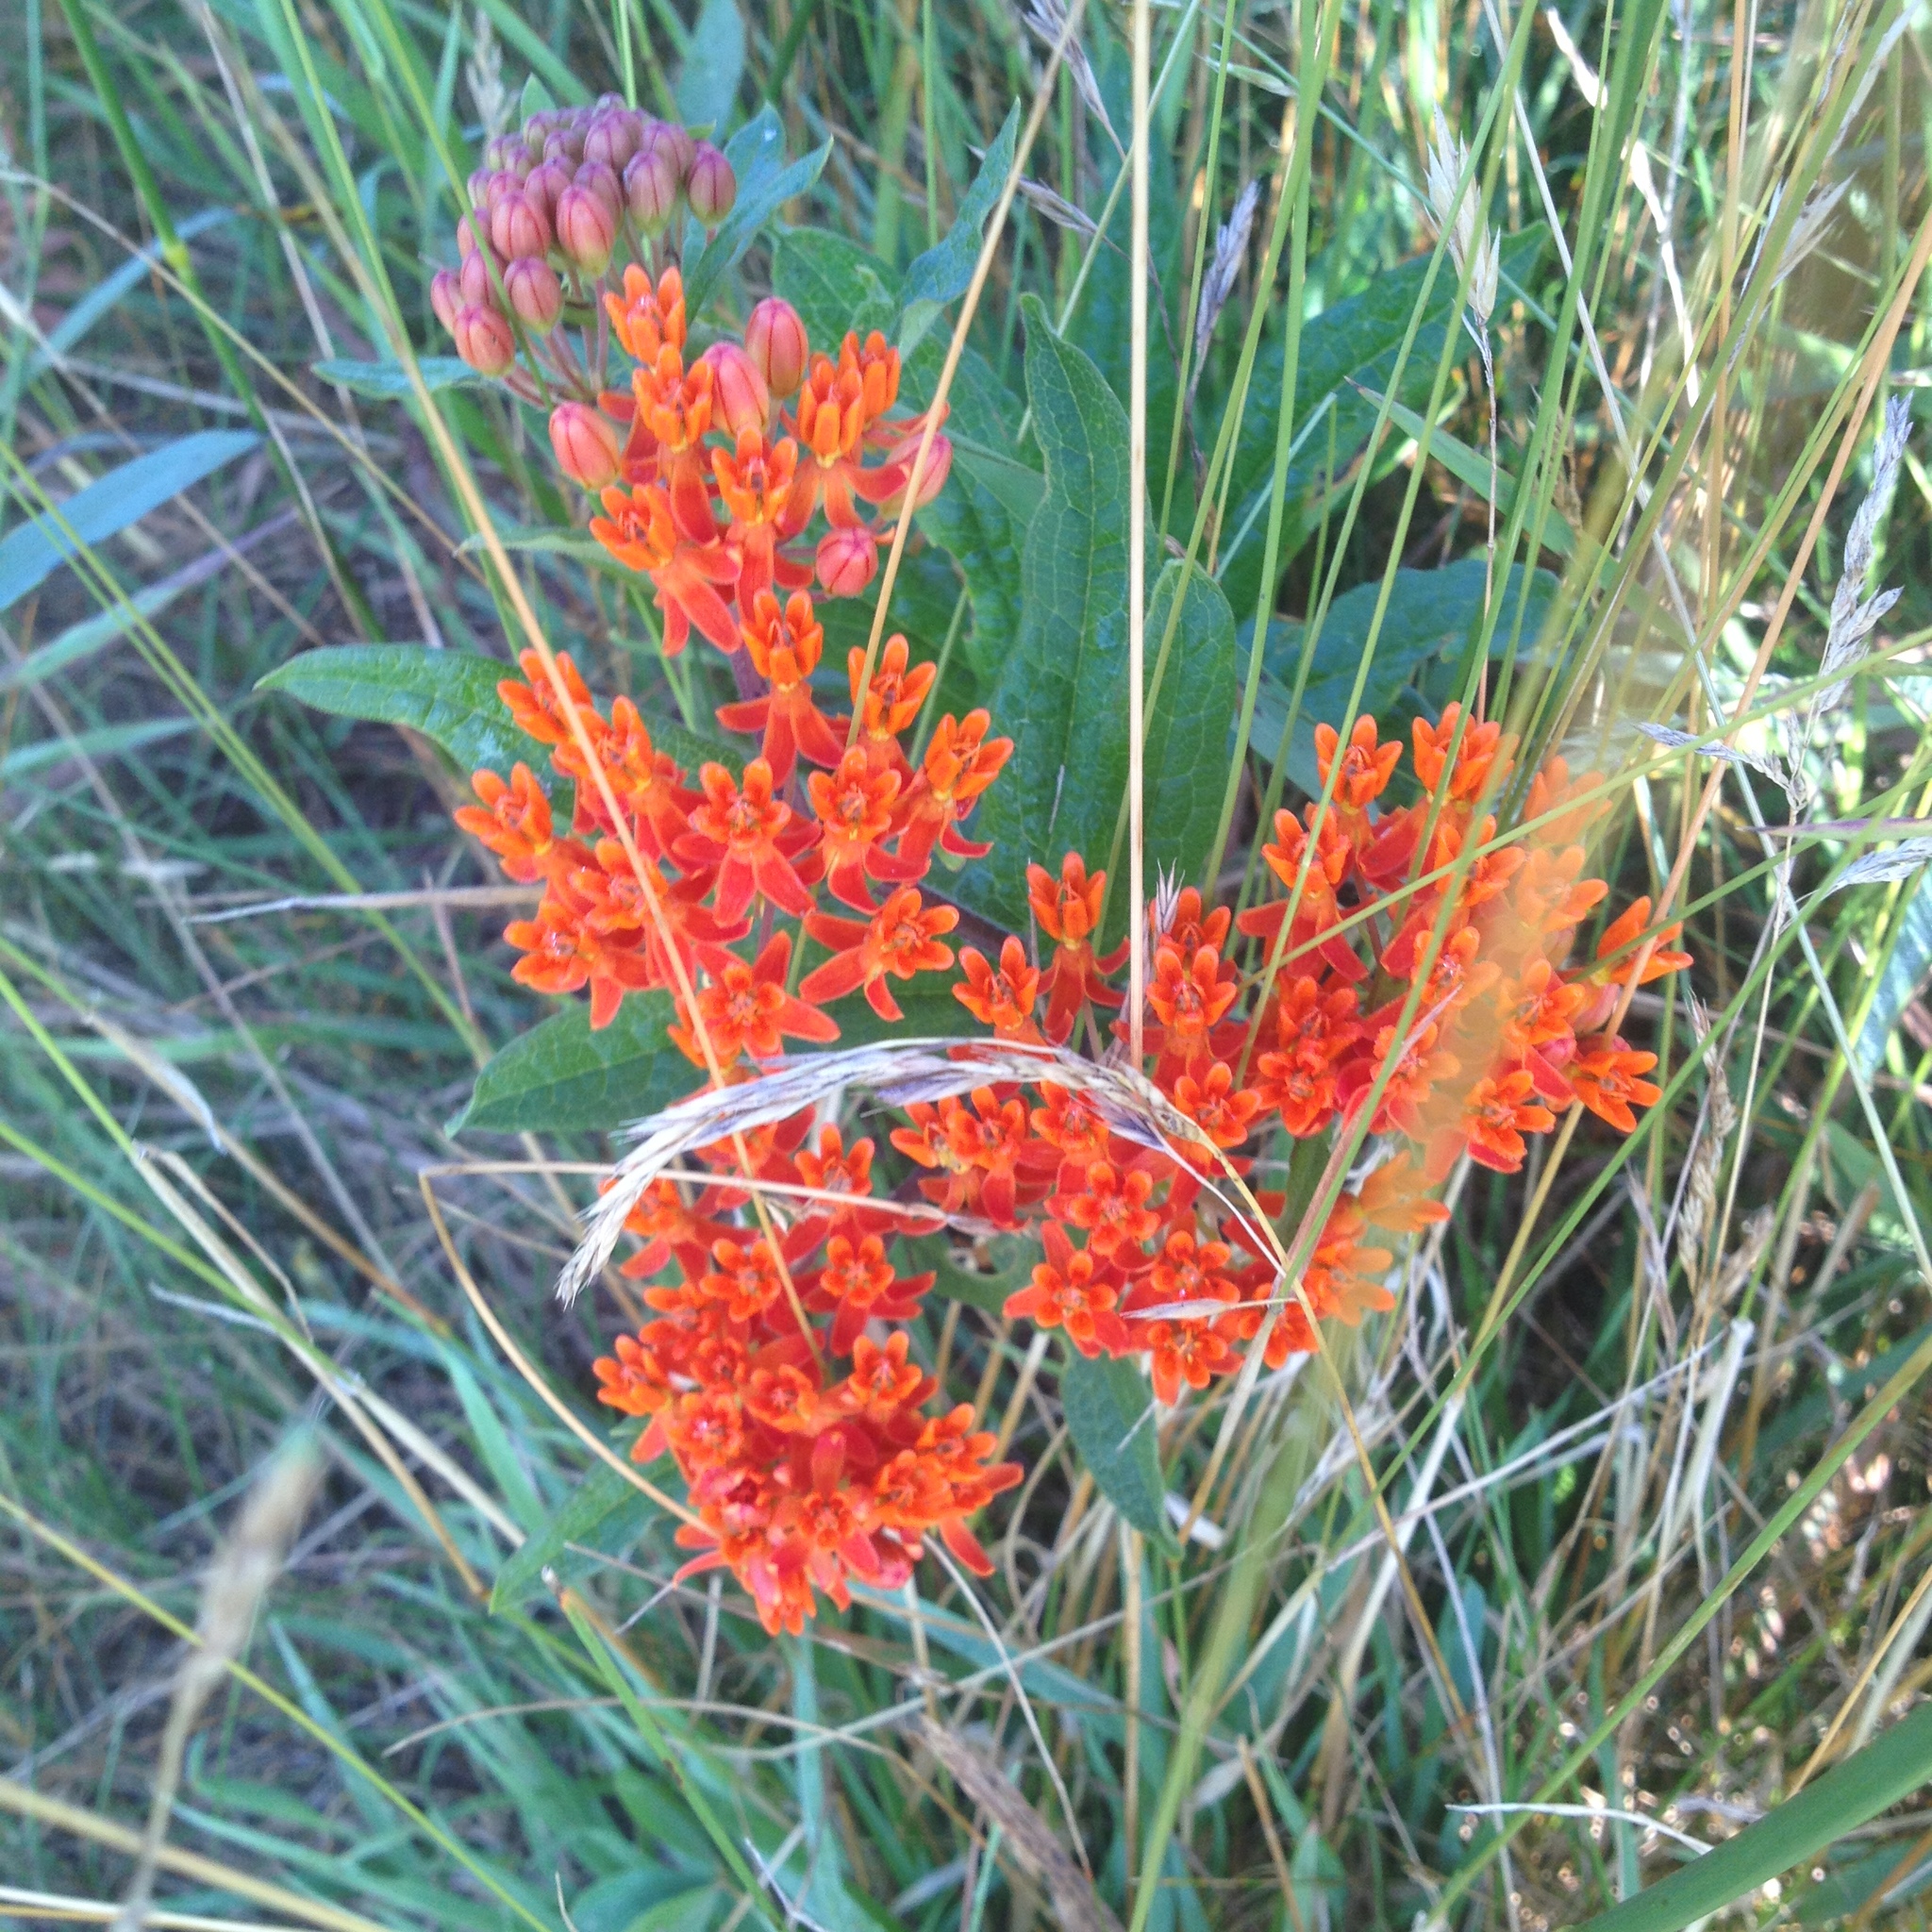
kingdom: Plantae
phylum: Tracheophyta
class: Magnoliopsida
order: Gentianales
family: Apocynaceae
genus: Asclepias
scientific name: Asclepias tuberosa
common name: Butterfly milkweed
